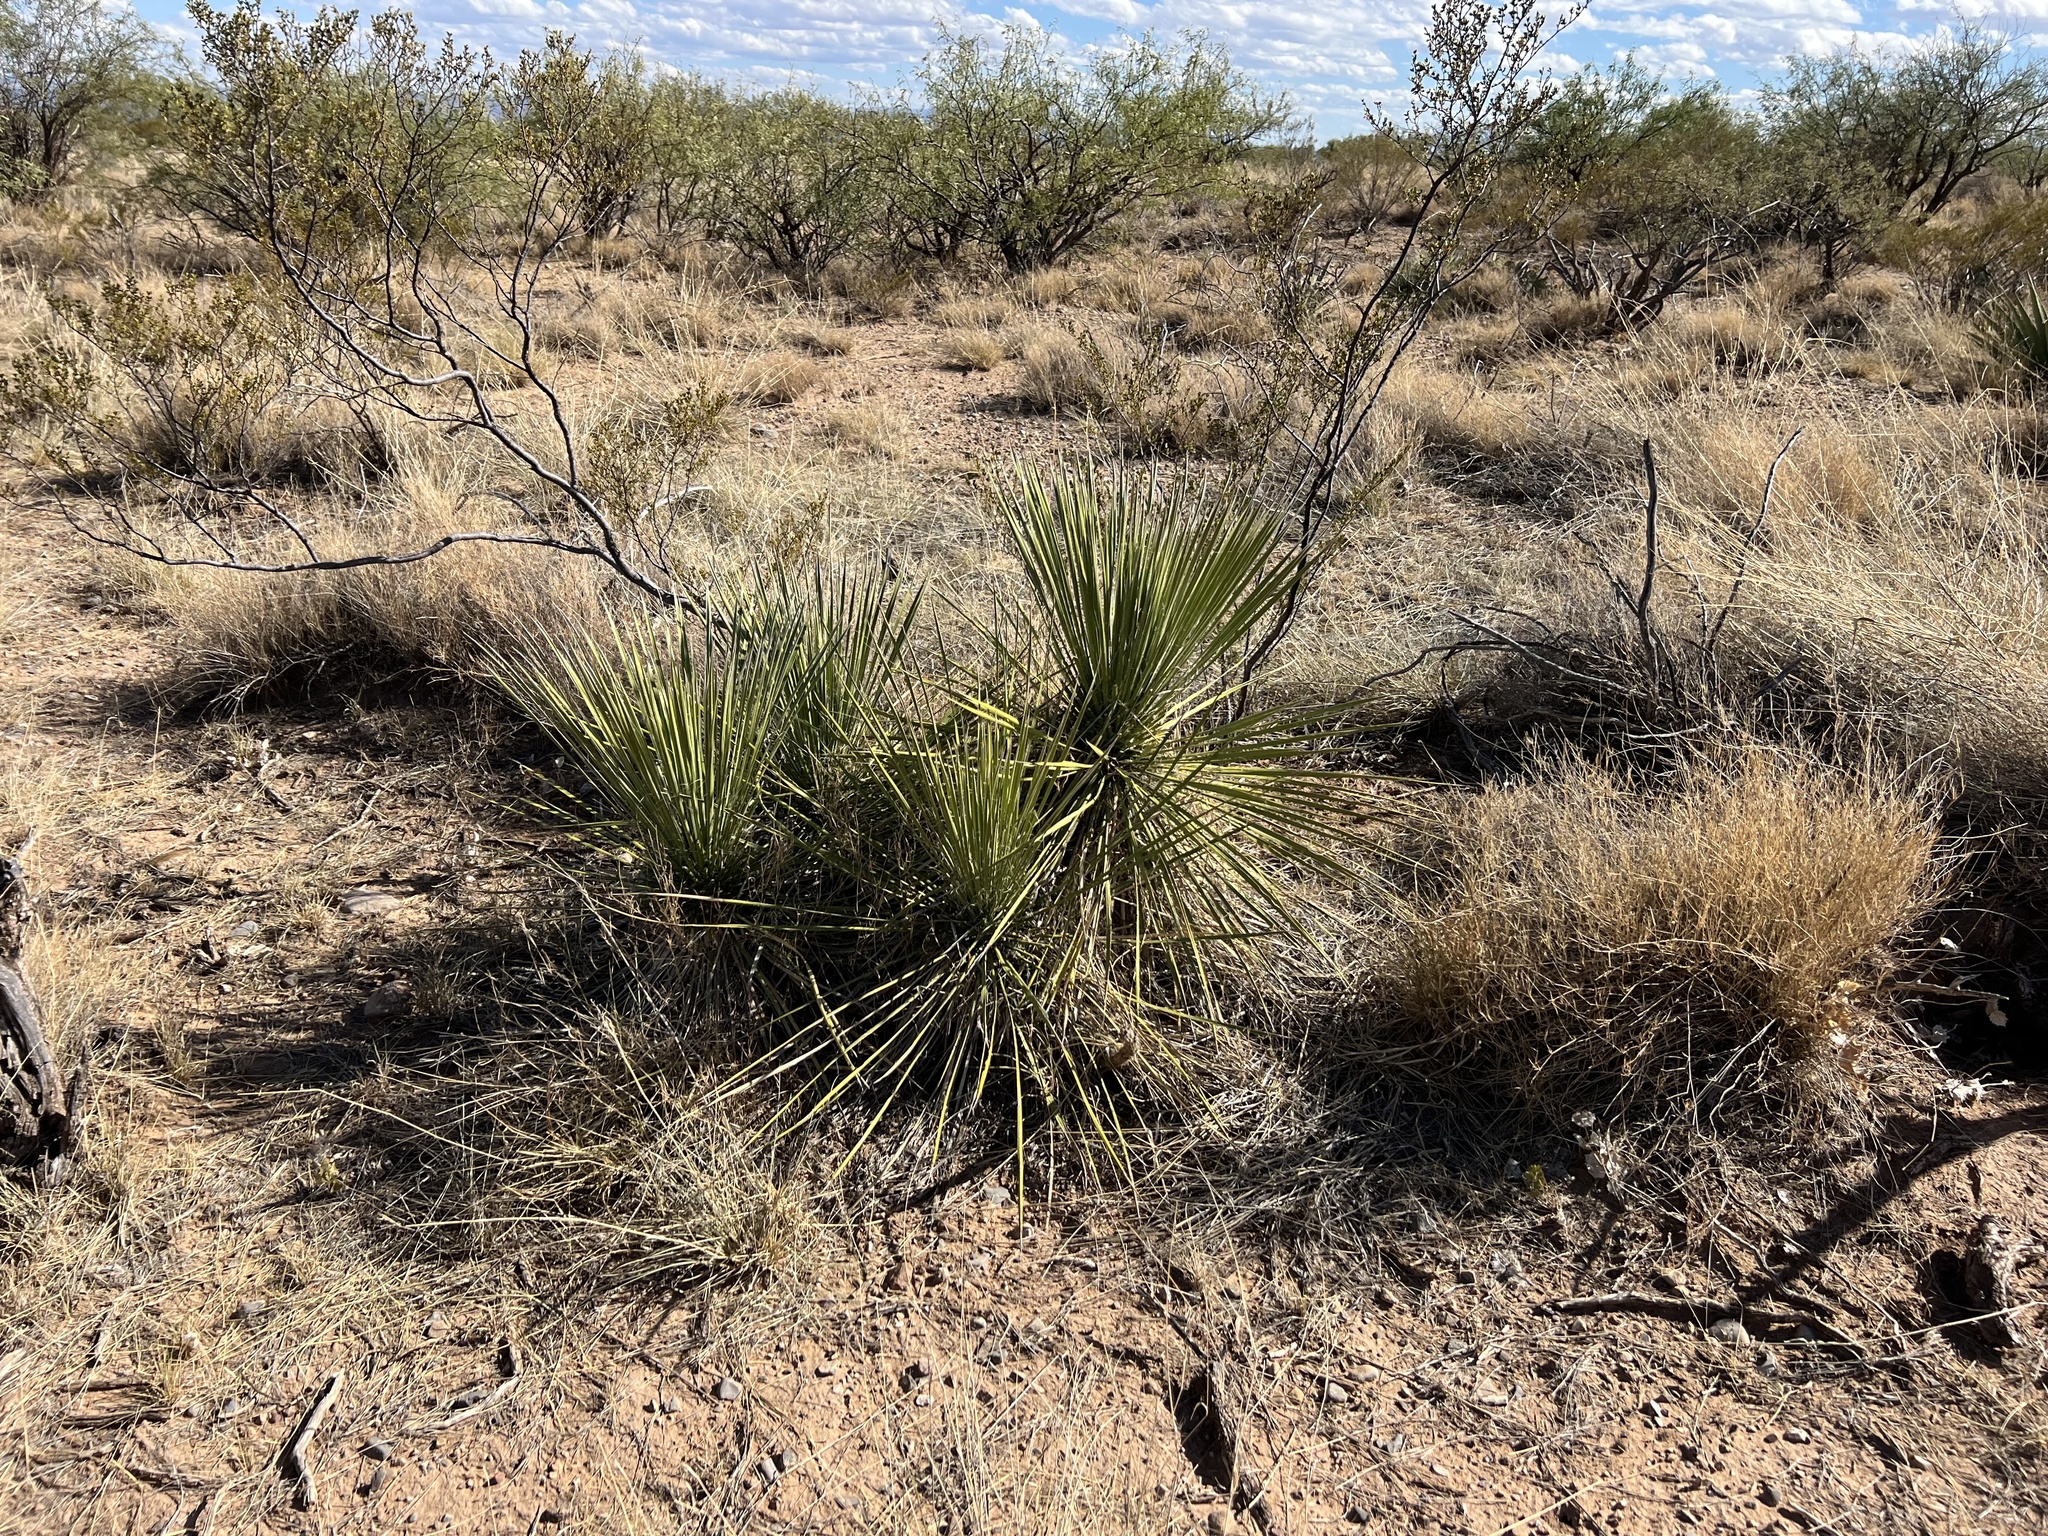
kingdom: Plantae
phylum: Tracheophyta
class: Liliopsida
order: Asparagales
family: Asparagaceae
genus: Yucca
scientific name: Yucca elata
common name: Palmella
